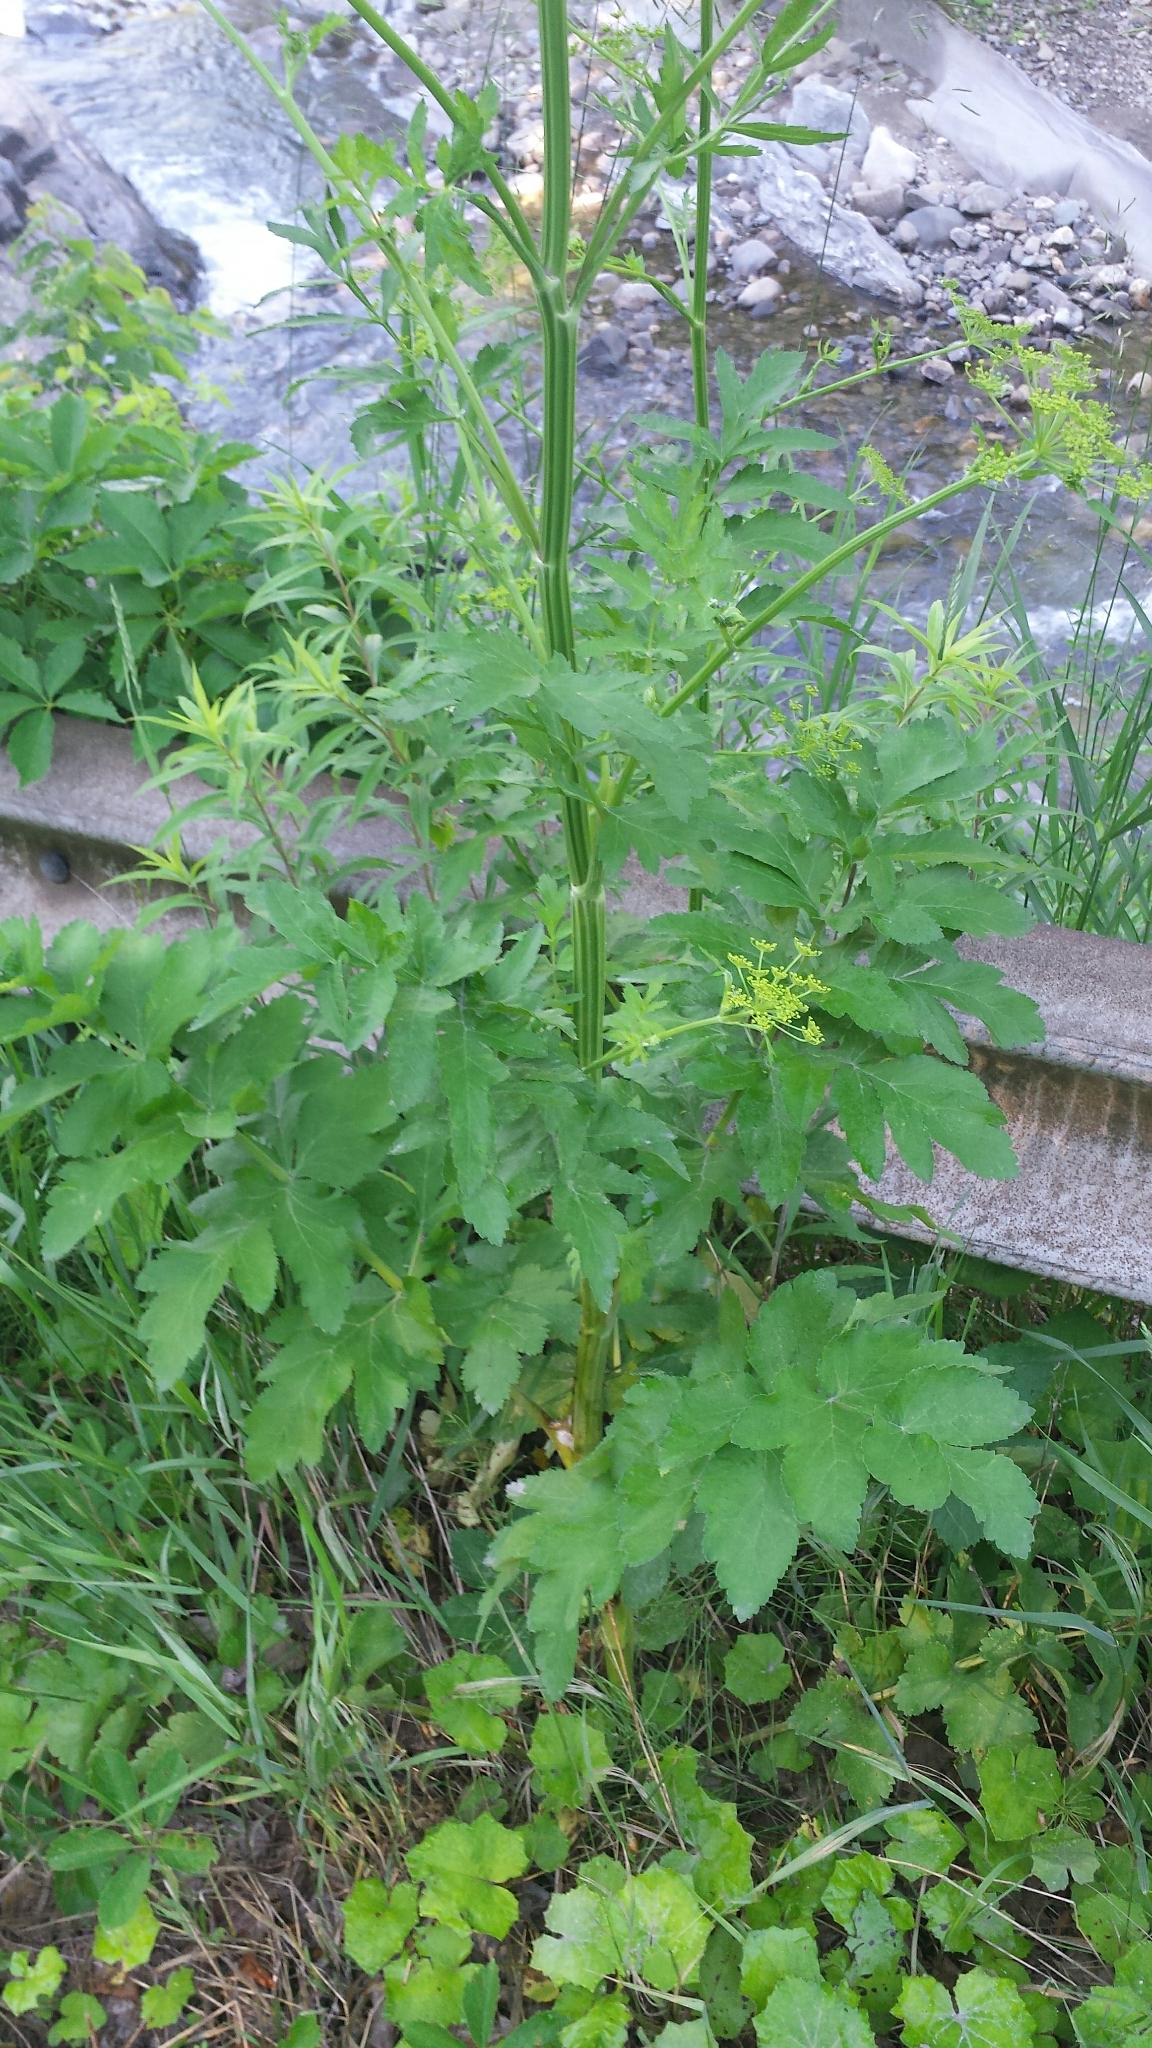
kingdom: Plantae
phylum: Tracheophyta
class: Magnoliopsida
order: Apiales
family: Apiaceae
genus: Pastinaca
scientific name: Pastinaca sativa
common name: Wild parsnip
